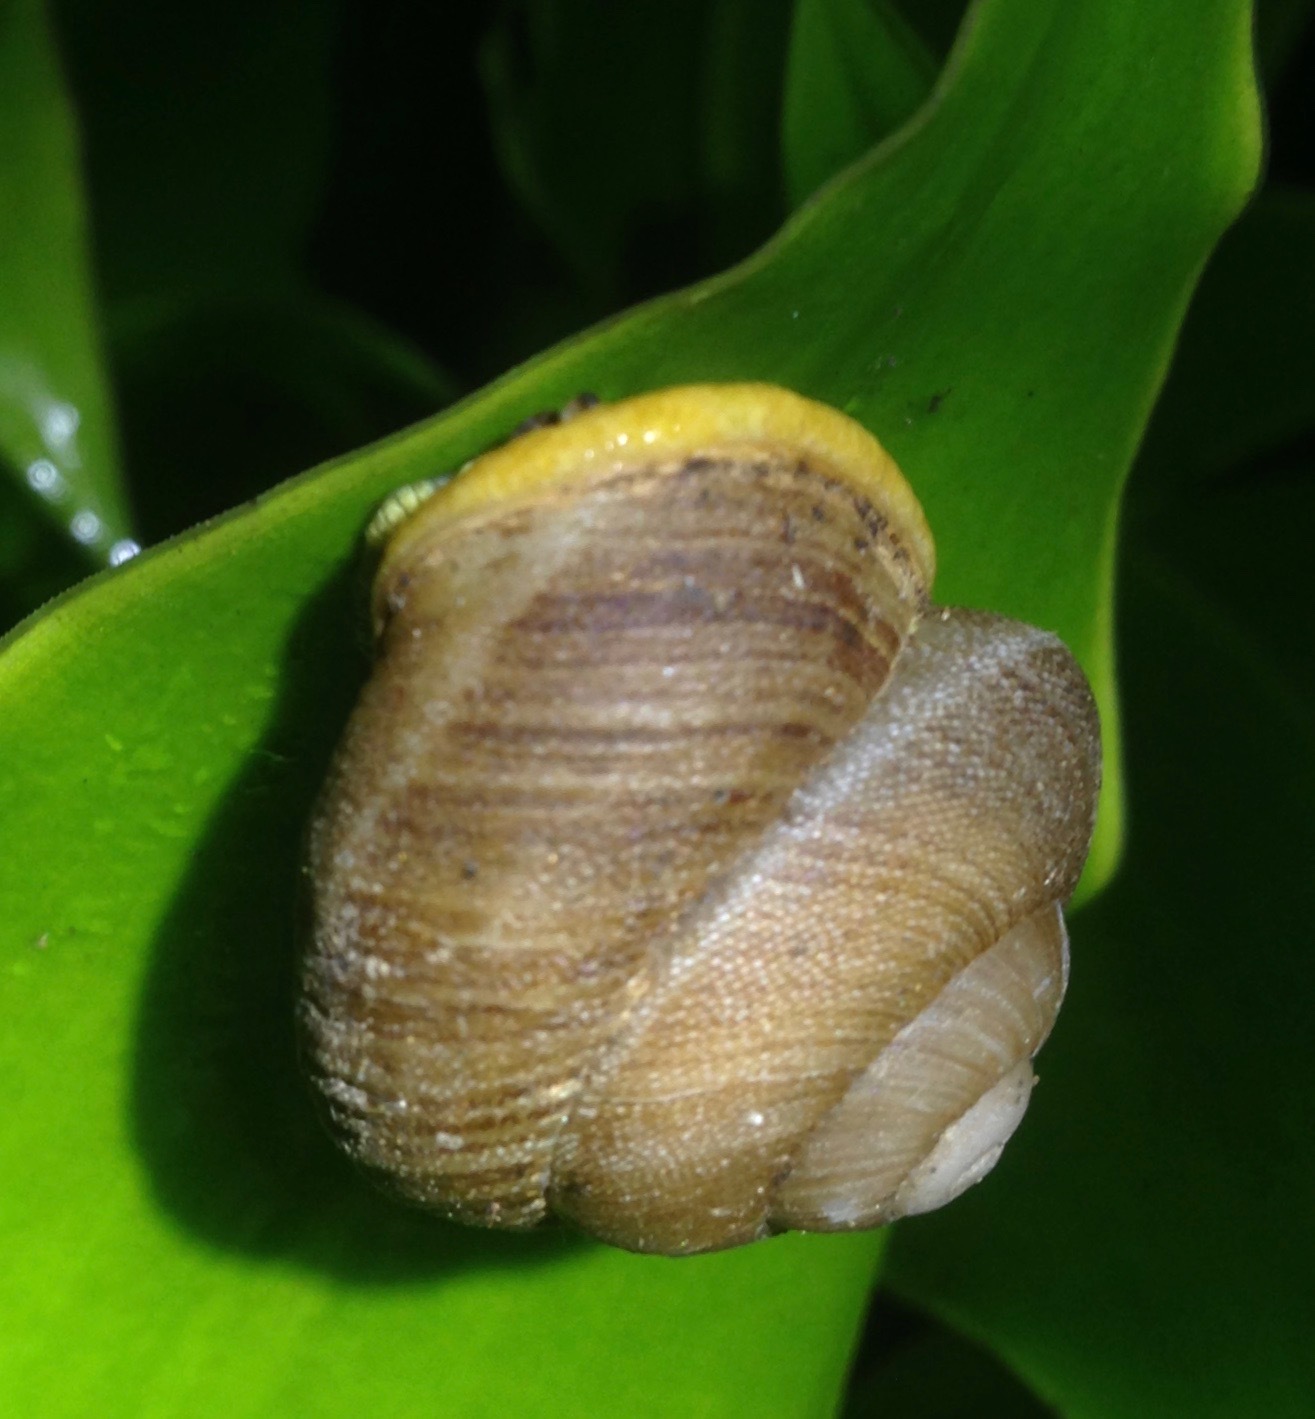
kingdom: Animalia
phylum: Mollusca
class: Gastropoda
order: Stylommatophora
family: Sagdidae
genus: Granodomus
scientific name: Granodomus lima
